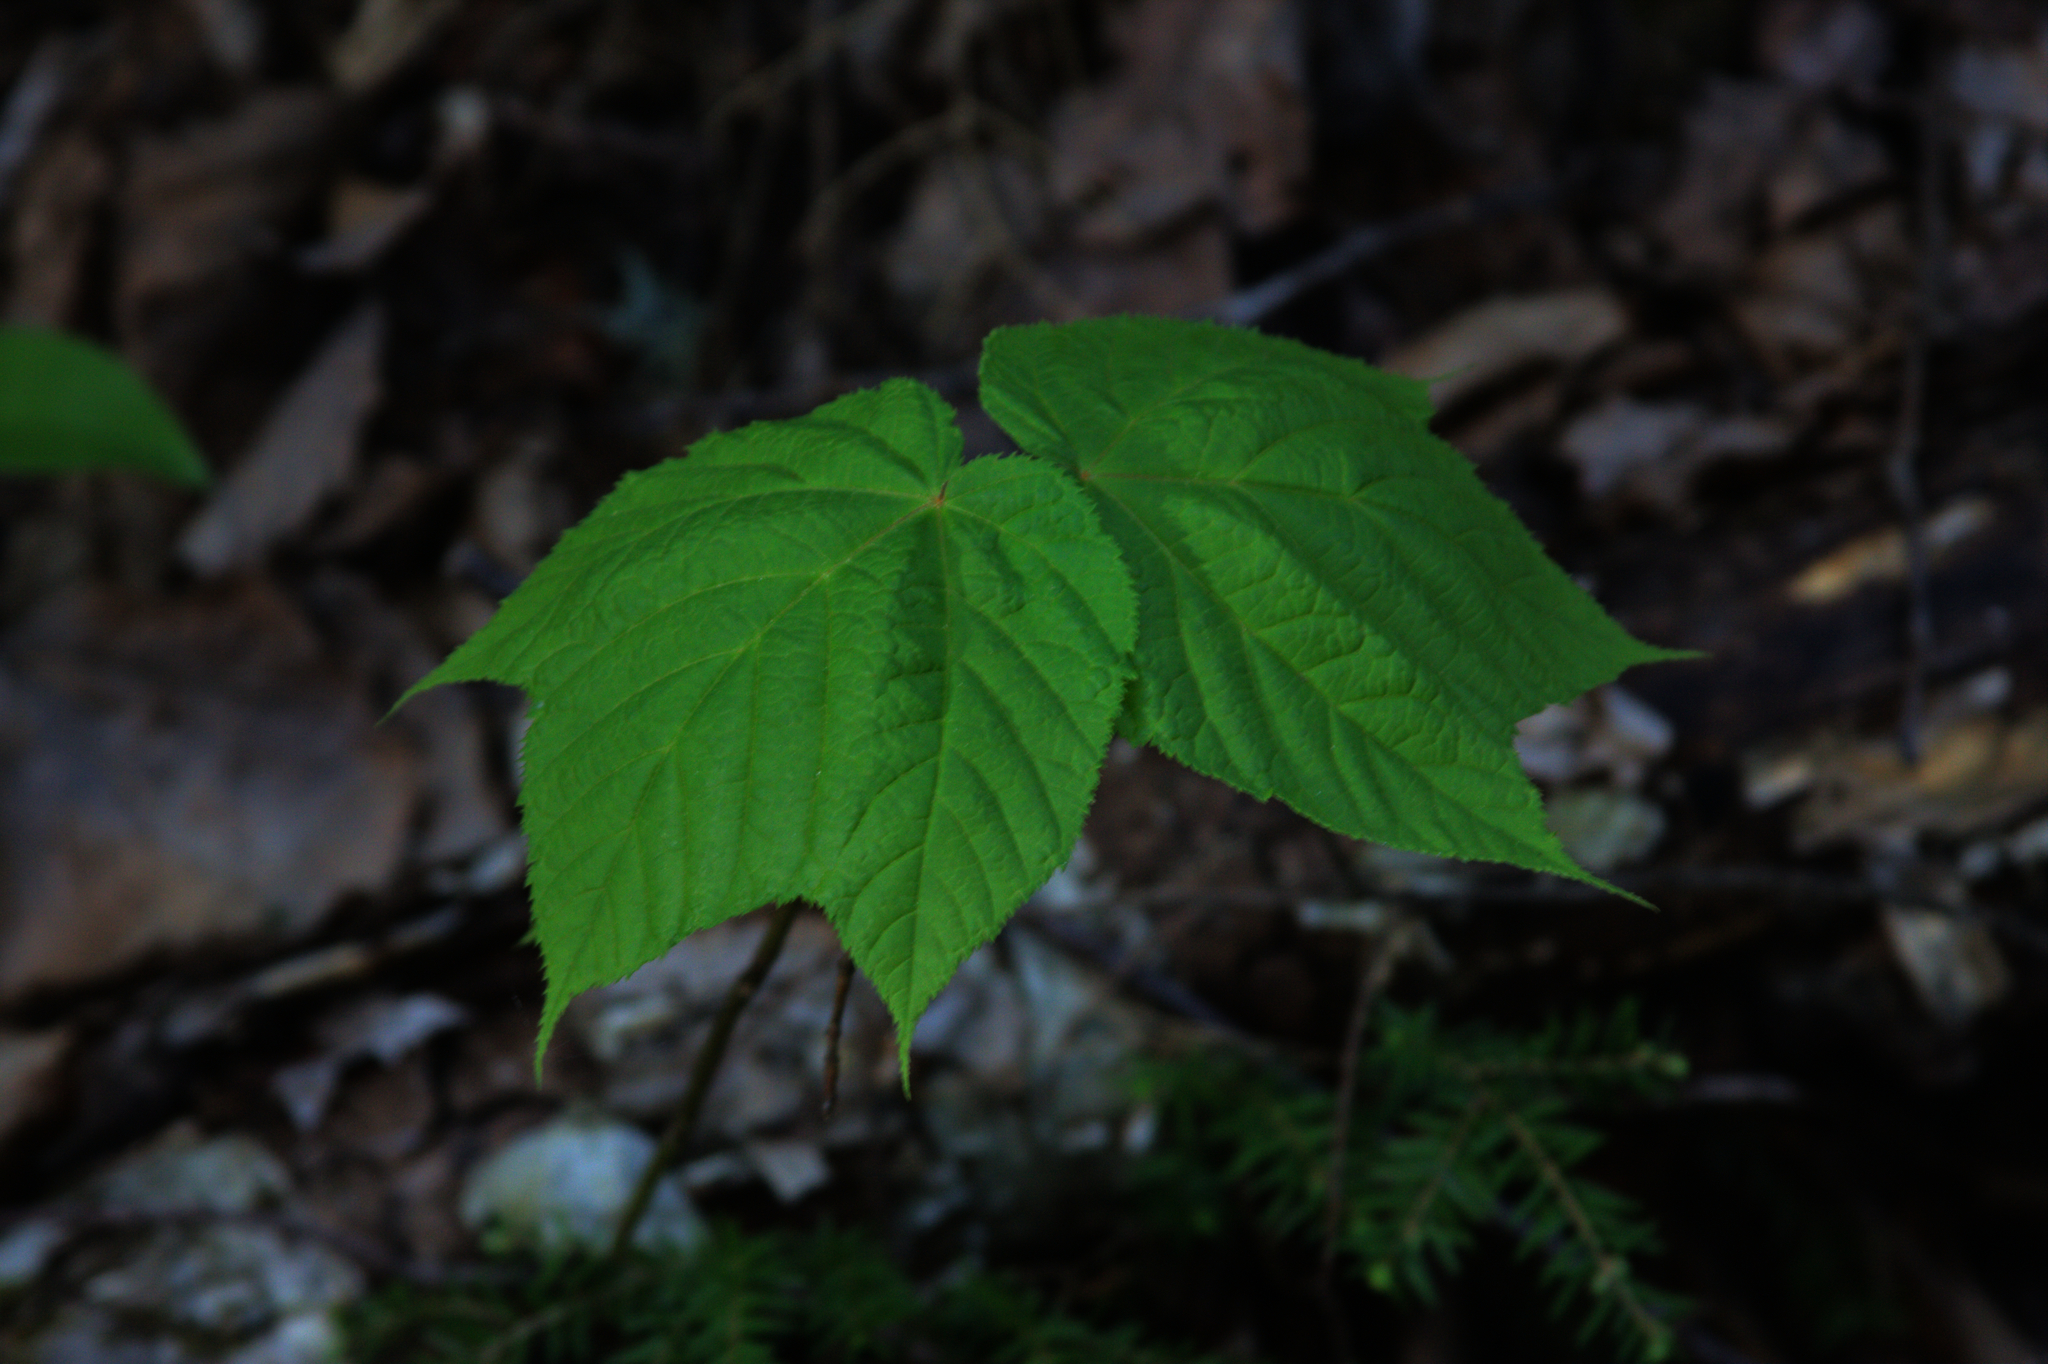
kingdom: Plantae
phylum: Tracheophyta
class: Magnoliopsida
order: Sapindales
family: Sapindaceae
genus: Acer
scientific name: Acer pensylvanicum
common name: Moosewood
